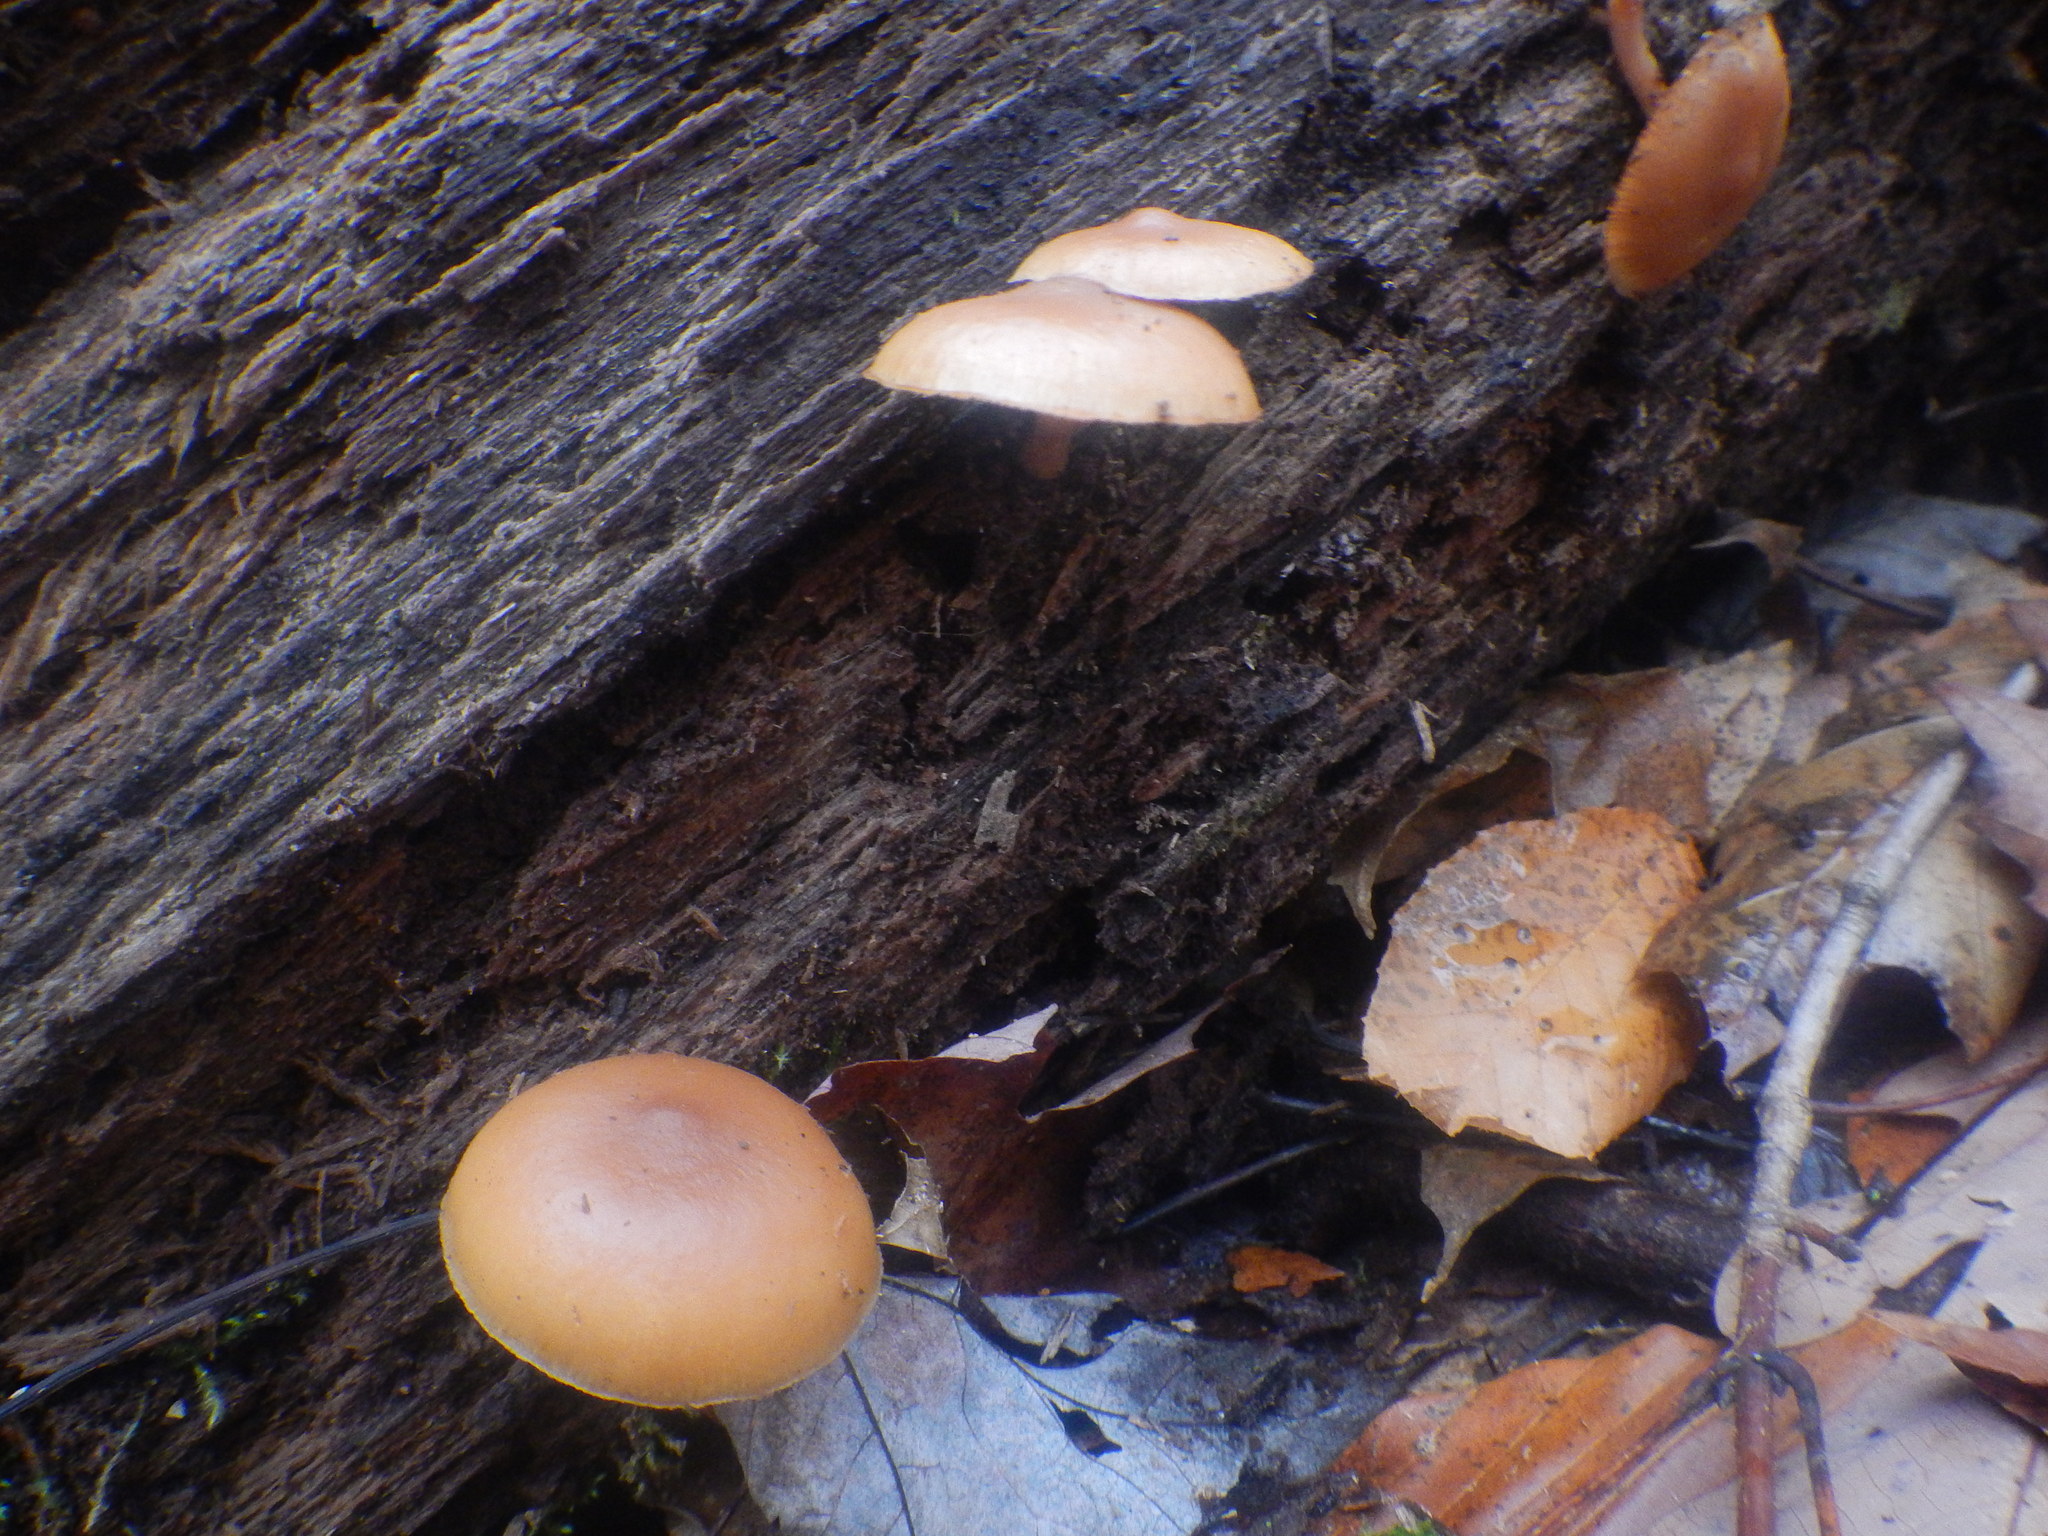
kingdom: Fungi
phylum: Basidiomycota
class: Agaricomycetes
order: Agaricales
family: Hymenogastraceae
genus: Galerina
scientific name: Galerina marginata
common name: Funeral bell
